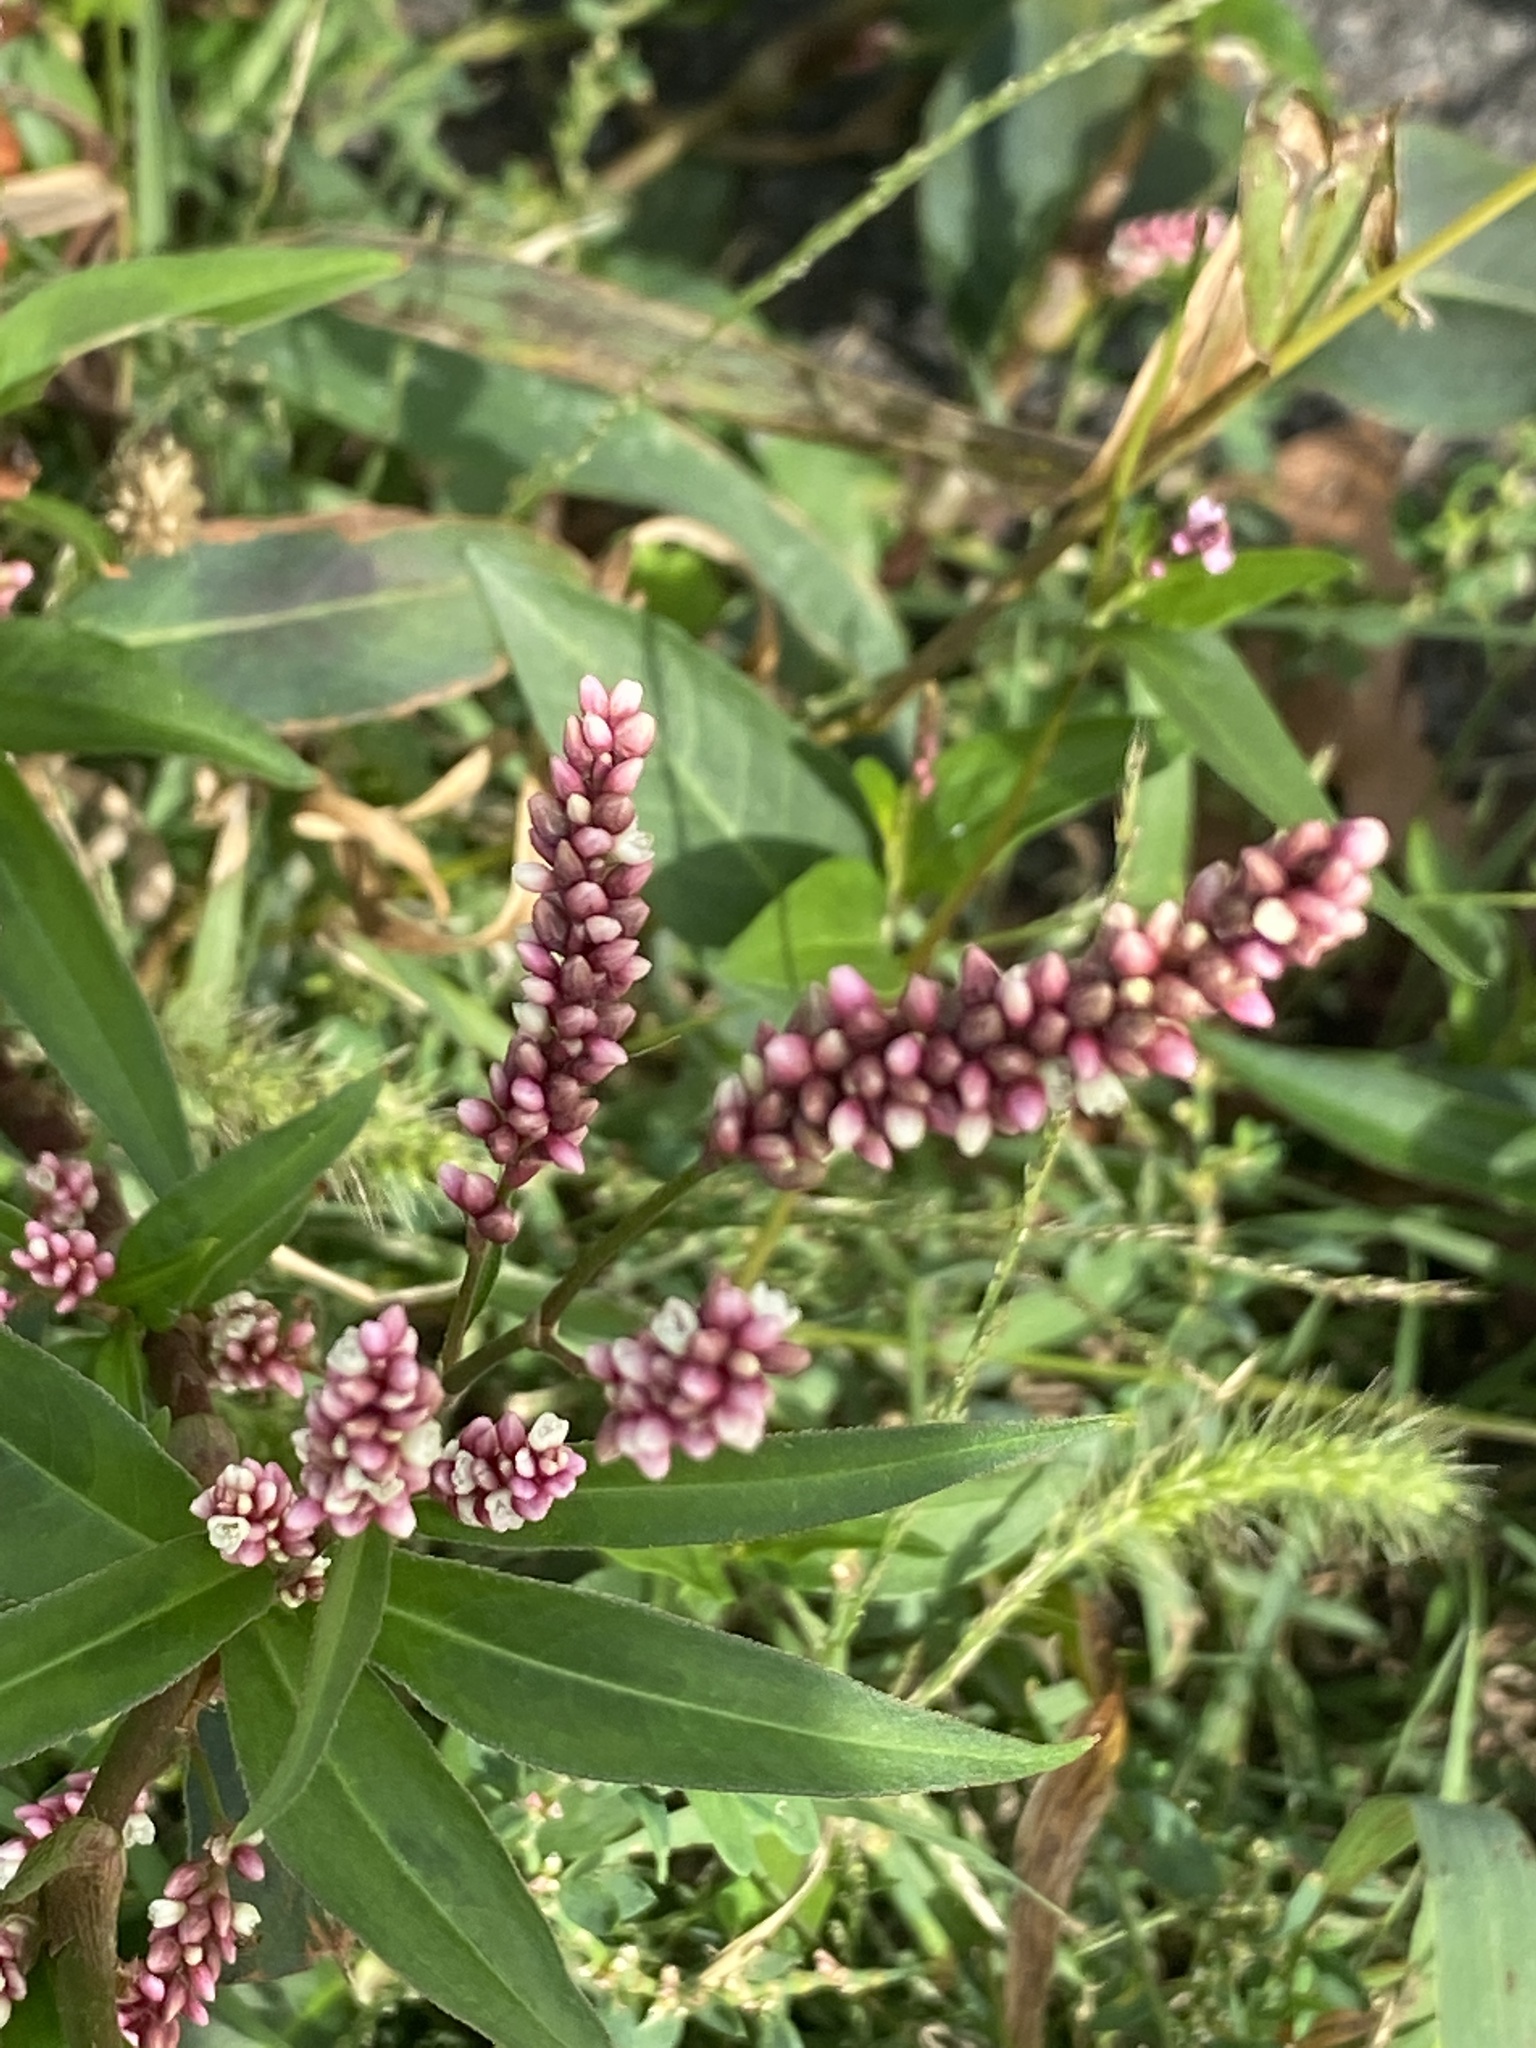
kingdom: Plantae
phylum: Tracheophyta
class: Magnoliopsida
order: Caryophyllales
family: Polygonaceae
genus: Persicaria
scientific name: Persicaria extremiorientalis
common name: Far-eastern smartweed
